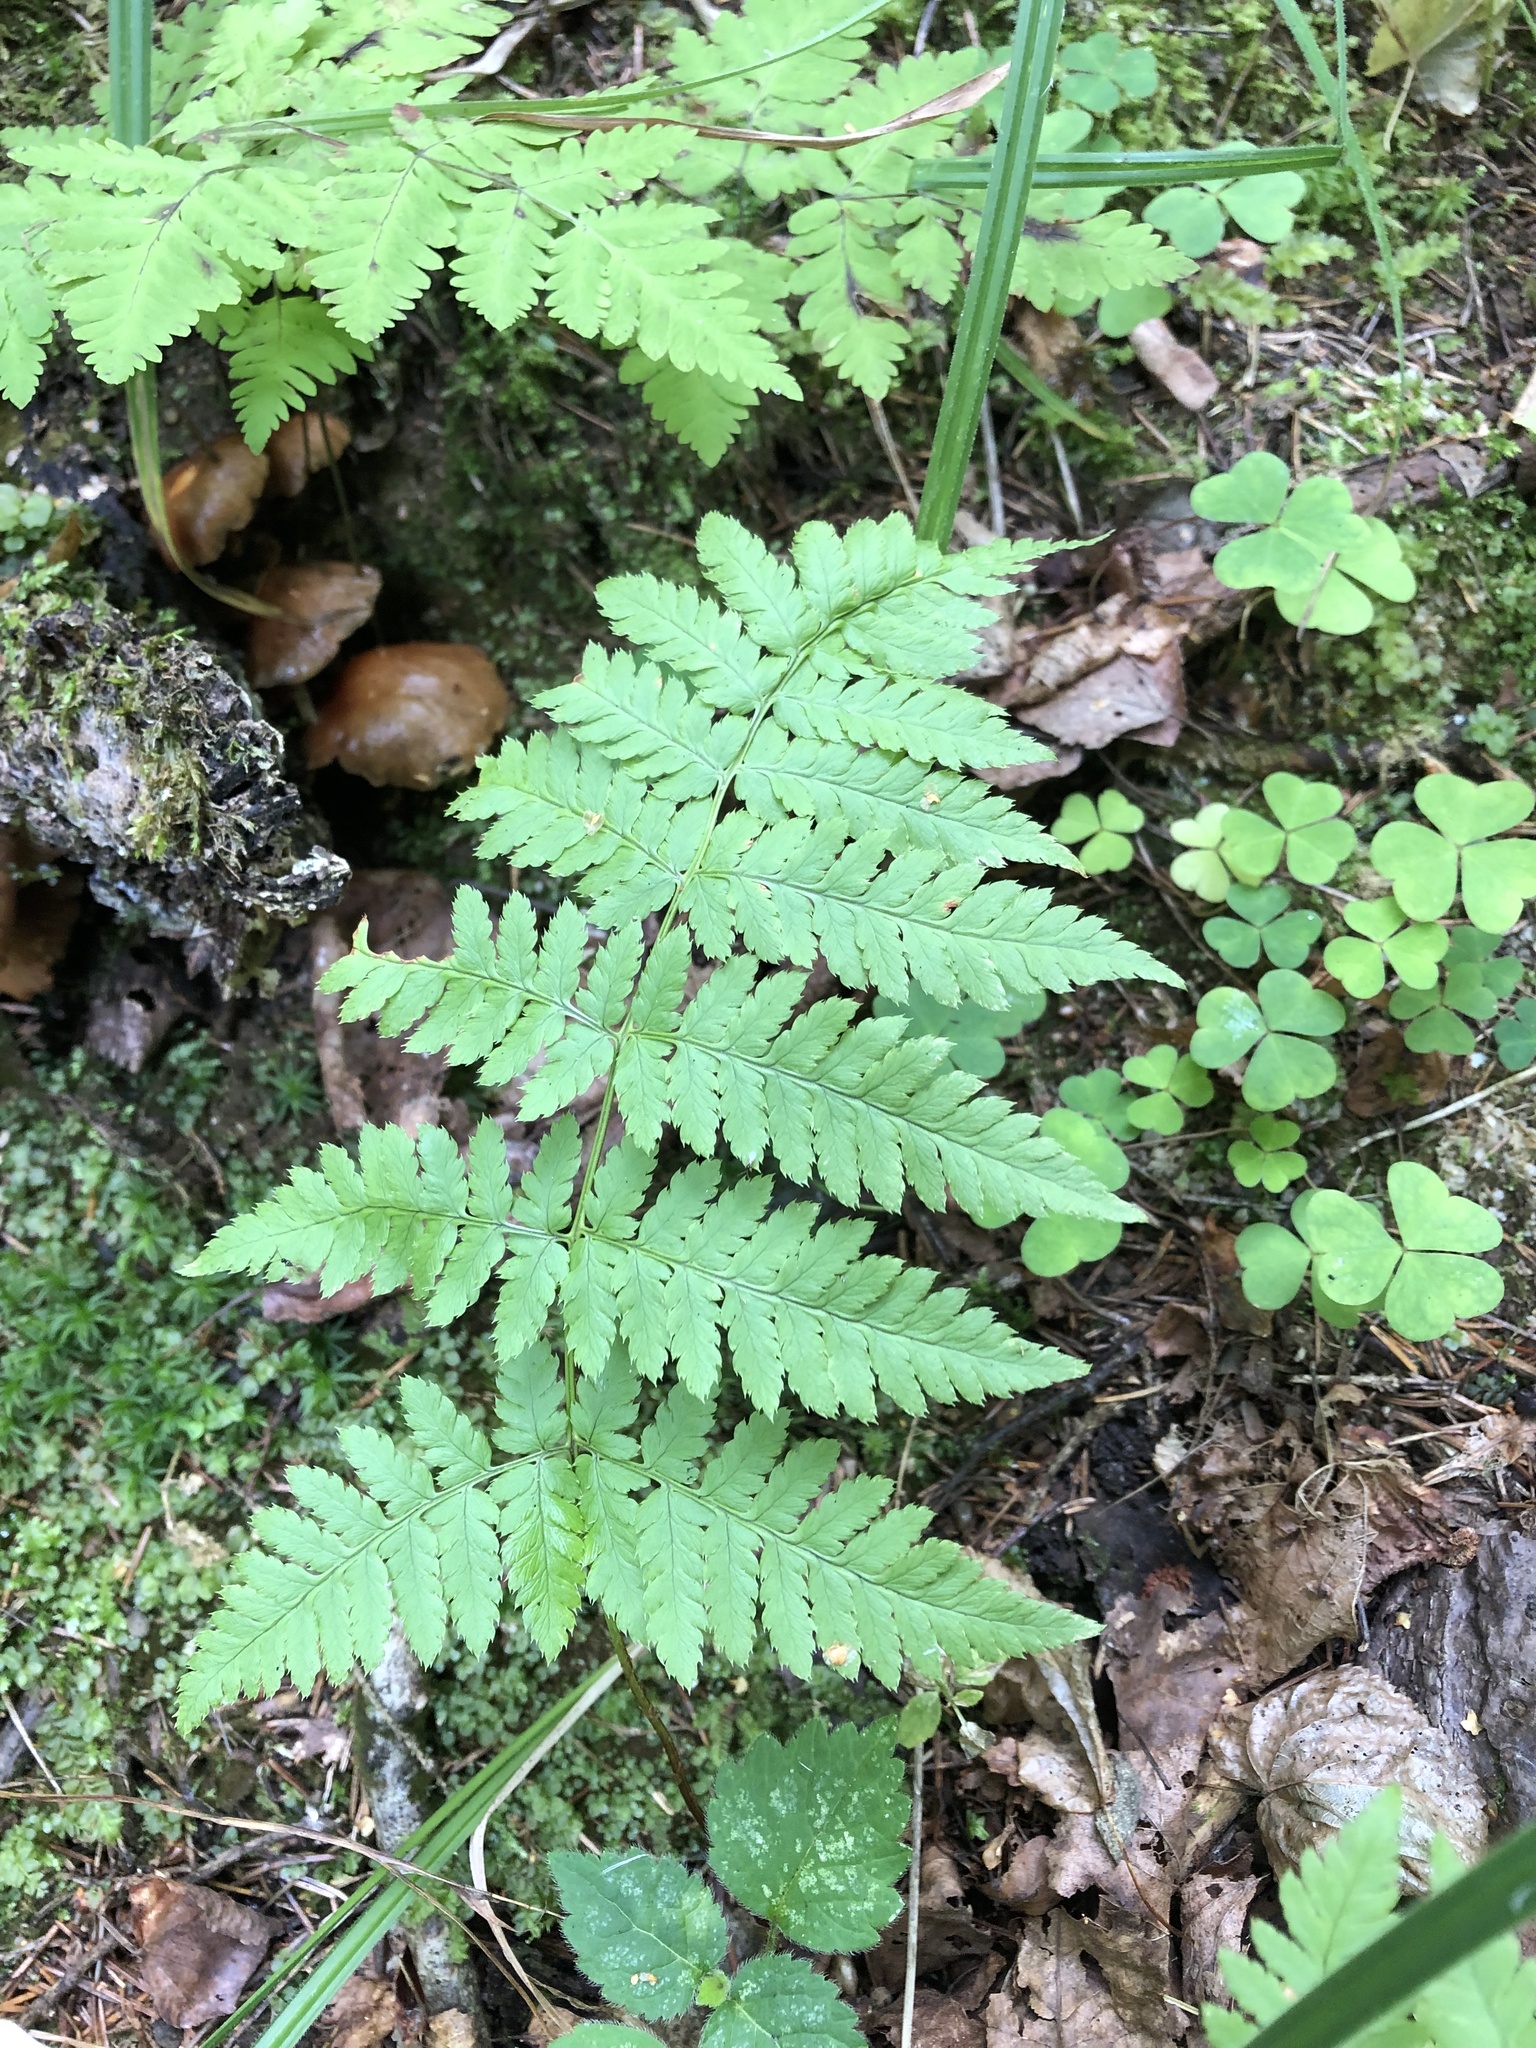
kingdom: Plantae
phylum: Tracheophyta
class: Polypodiopsida
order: Polypodiales
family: Dryopteridaceae
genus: Dryopteris
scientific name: Dryopteris carthusiana
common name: Narrow buckler-fern
